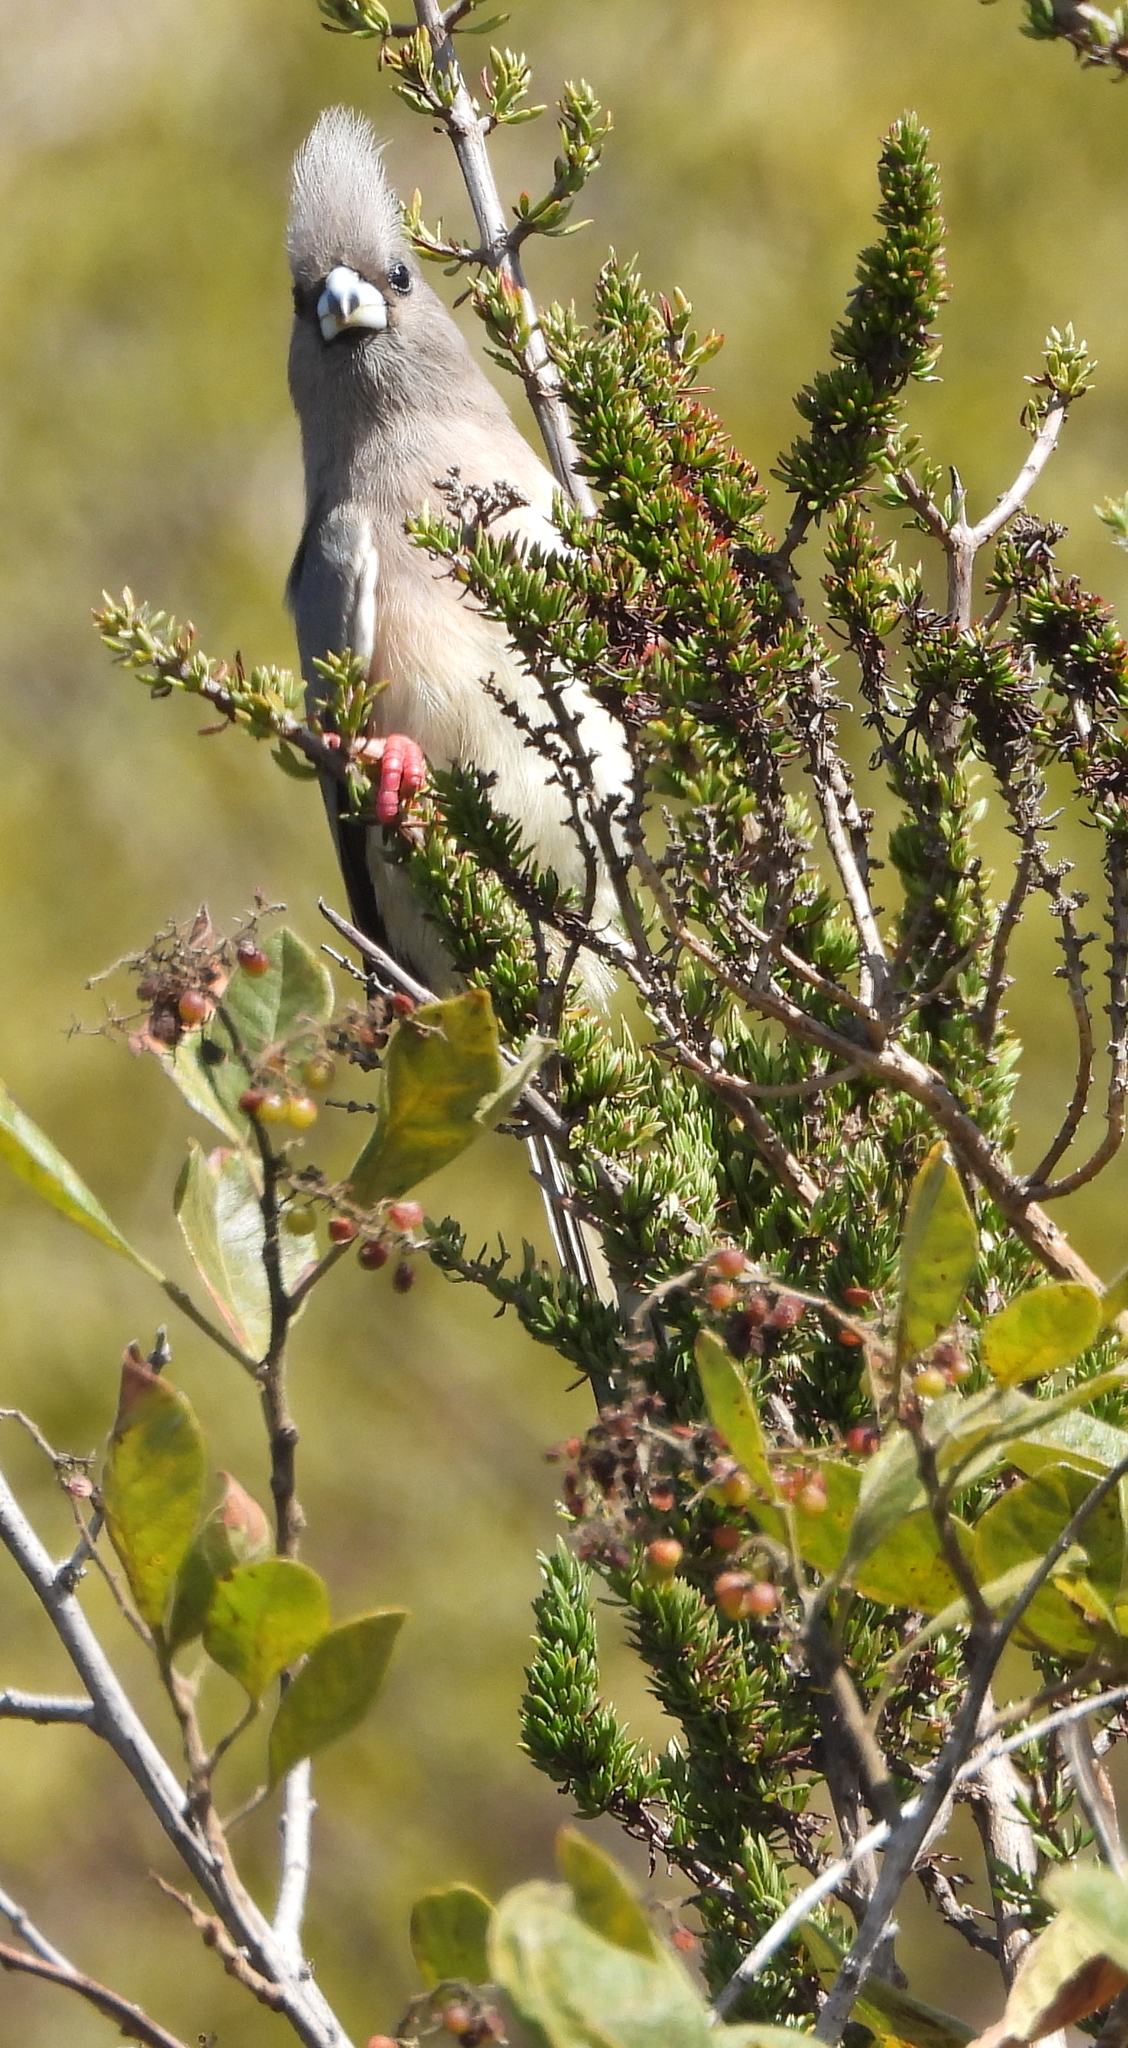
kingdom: Animalia
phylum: Chordata
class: Aves
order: Coliiformes
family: Coliidae
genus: Colius
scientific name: Colius colius
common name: White-backed mousebird
